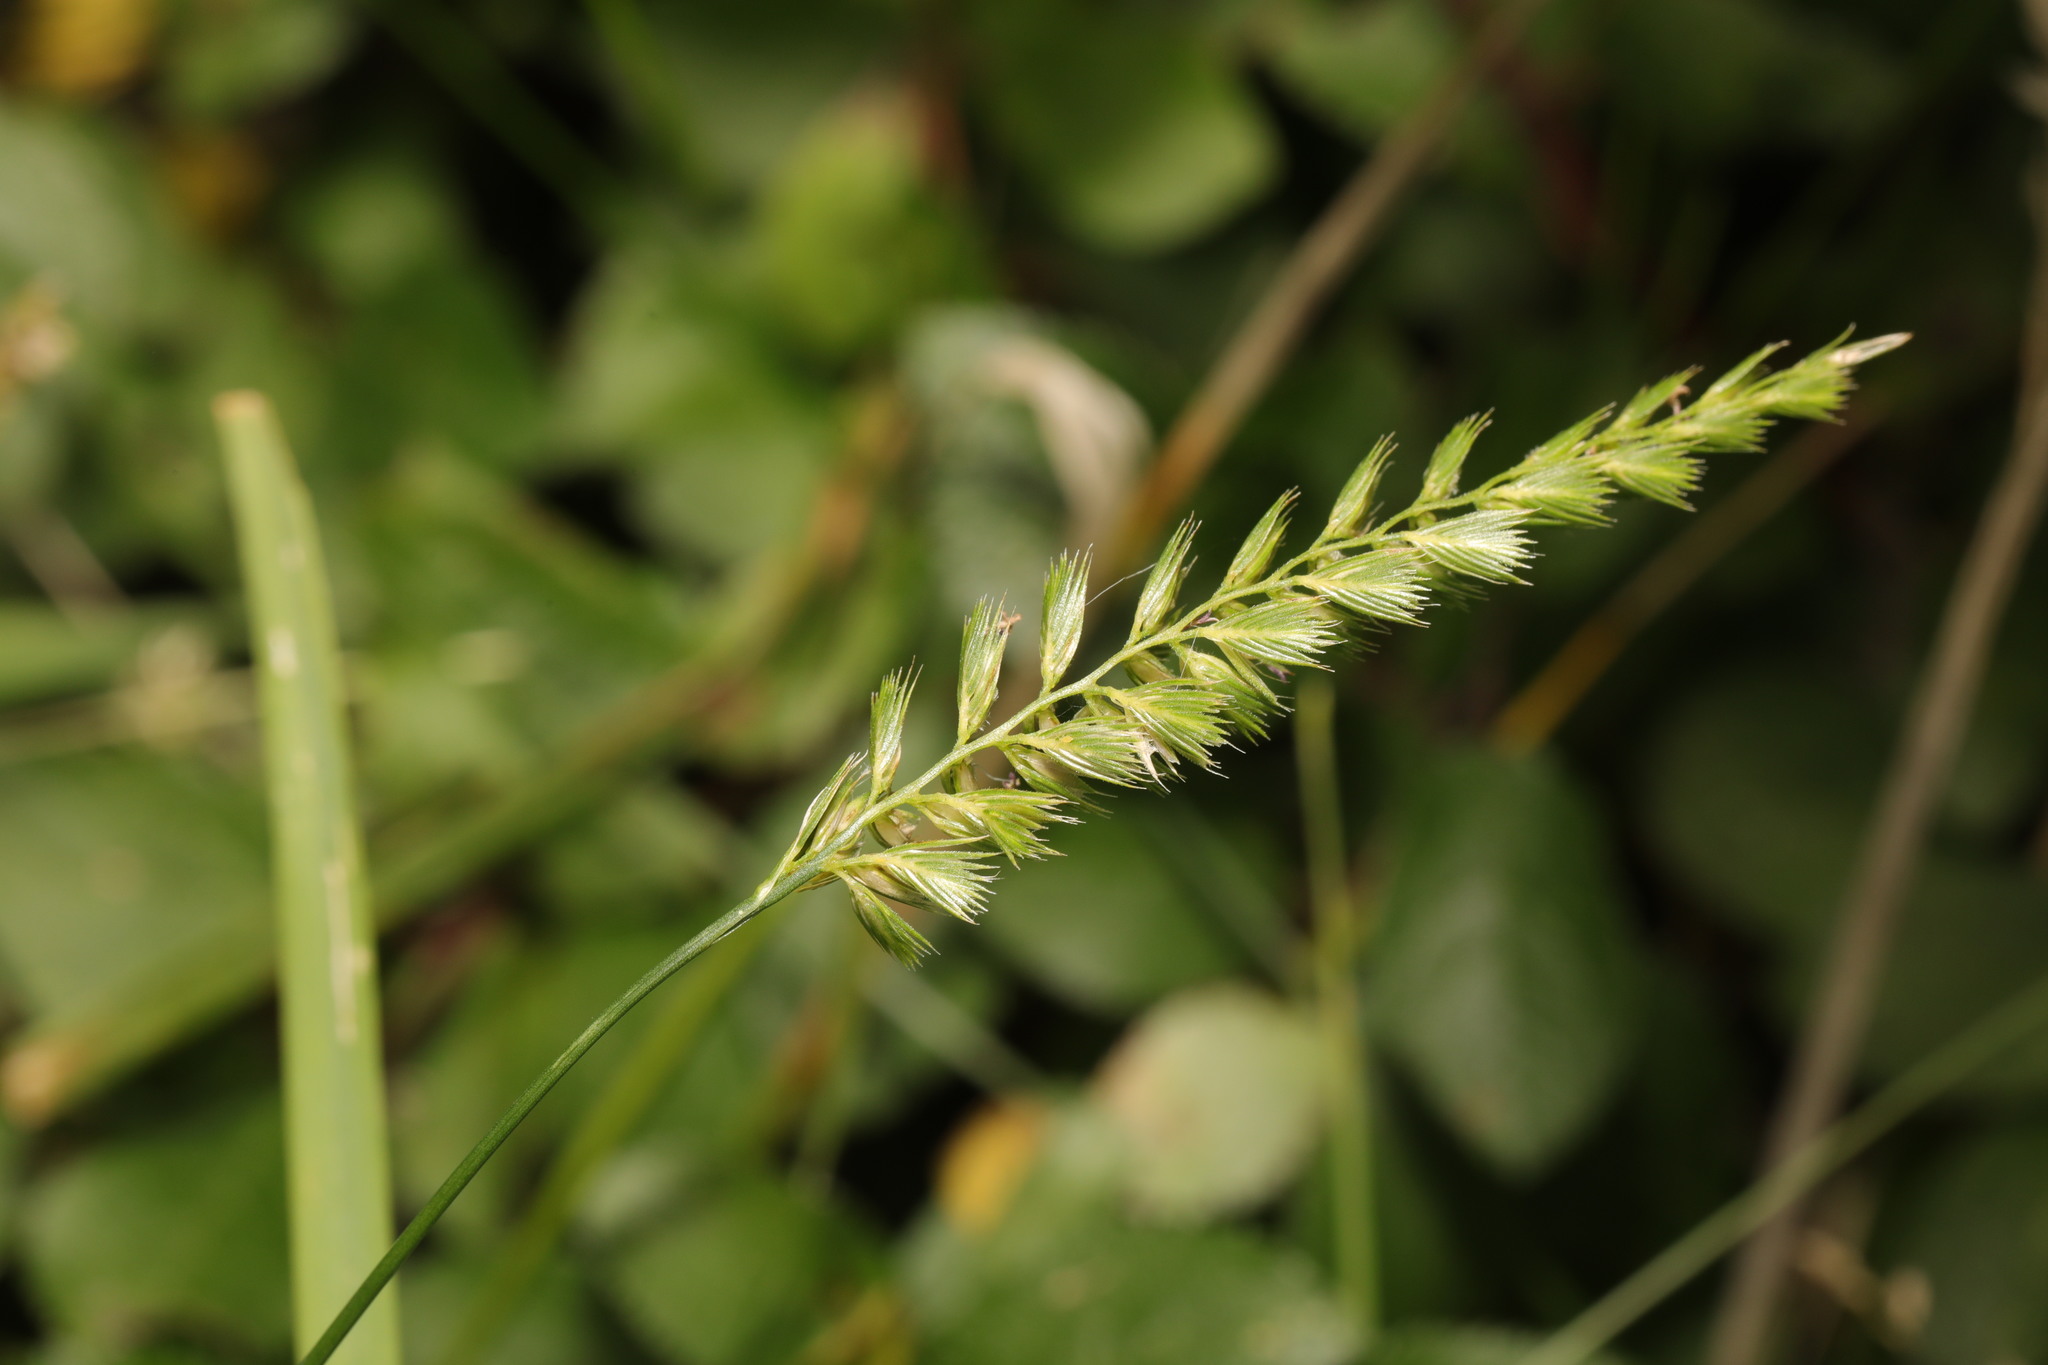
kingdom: Plantae
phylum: Tracheophyta
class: Liliopsida
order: Poales
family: Poaceae
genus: Cynosurus
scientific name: Cynosurus cristatus
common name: Crested dog's-tail
